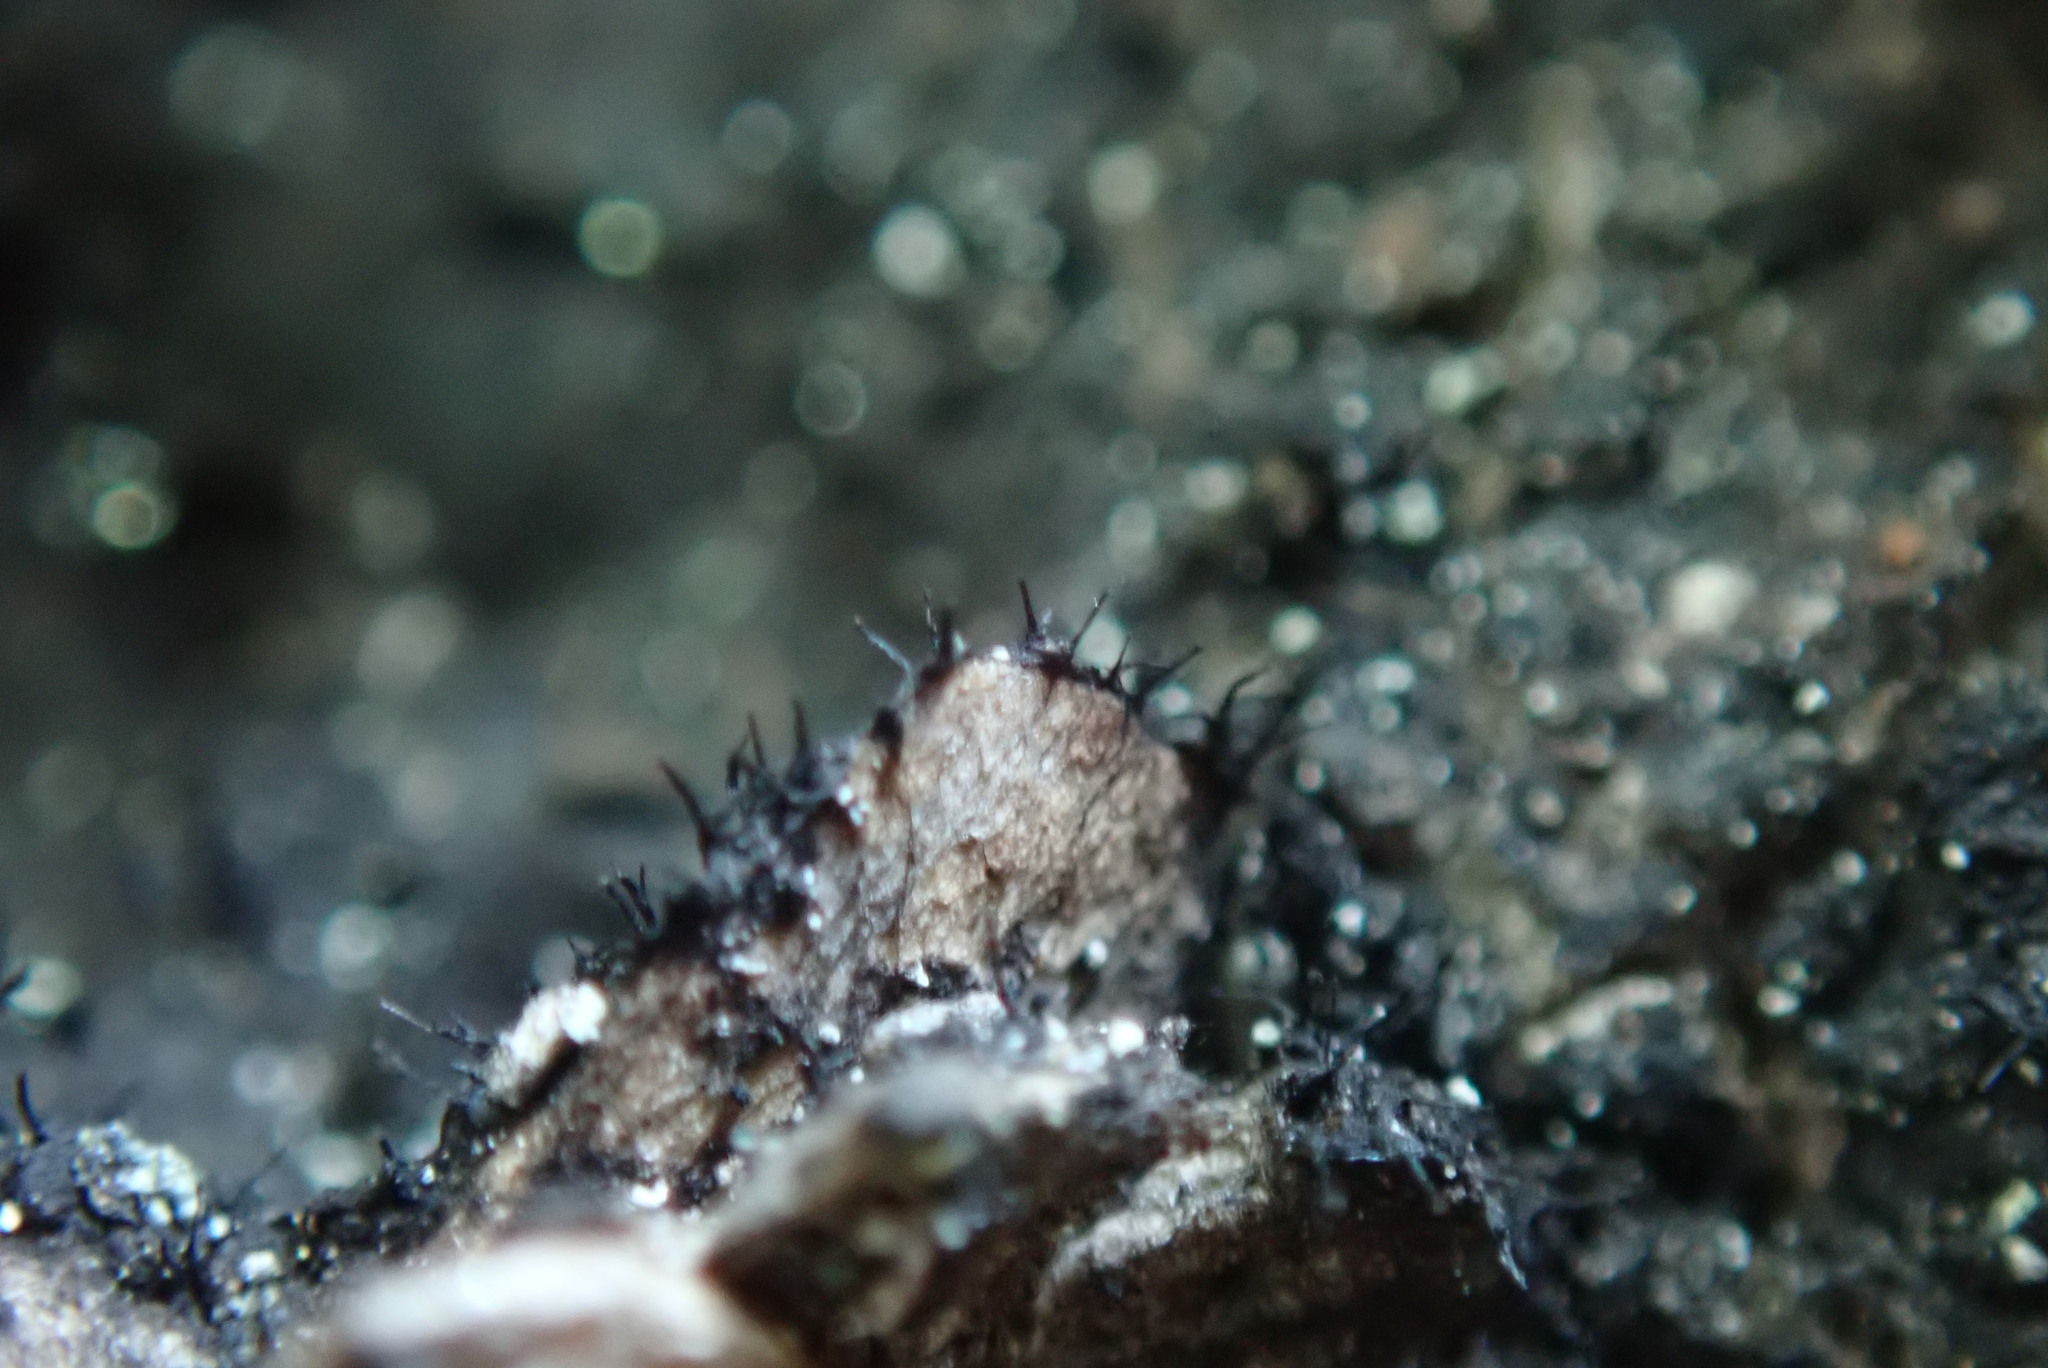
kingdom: Fungi
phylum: Ascomycota
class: Leotiomycetes
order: Helotiales
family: Amorphothecaceae
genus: Sorocybe
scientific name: Sorocybe resinae
